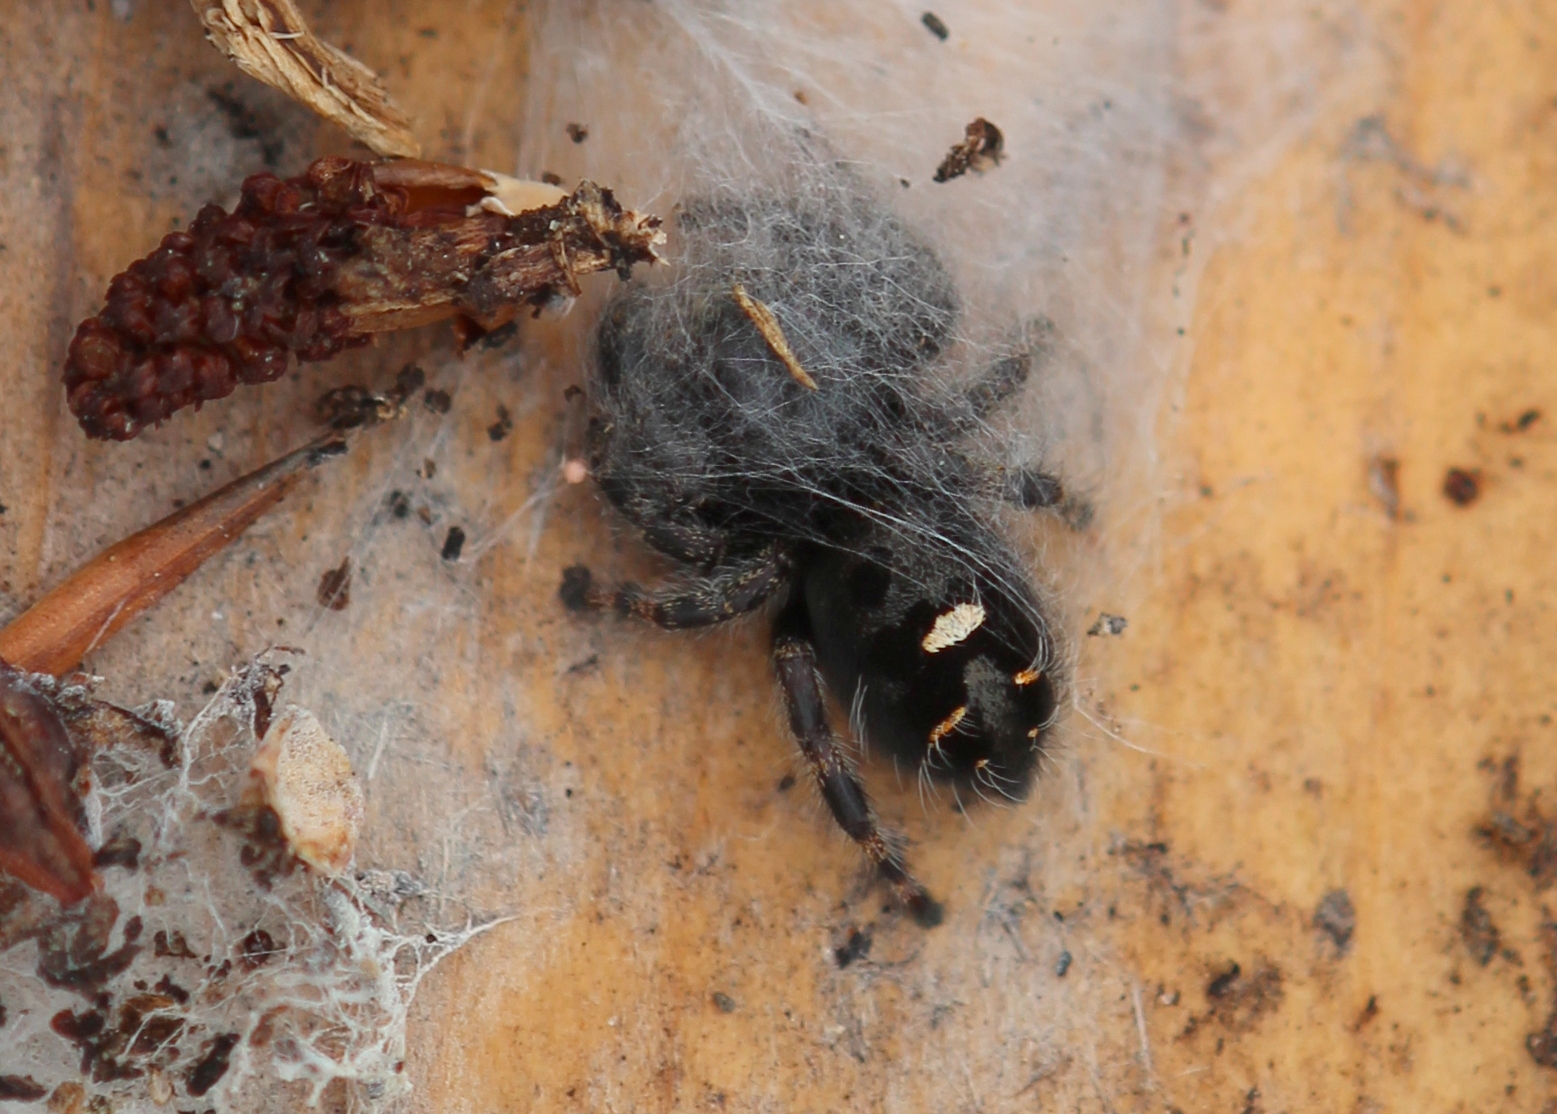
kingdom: Animalia
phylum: Arthropoda
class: Arachnida
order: Araneae
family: Salticidae
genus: Phidippus
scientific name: Phidippus audax
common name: Bold jumper
